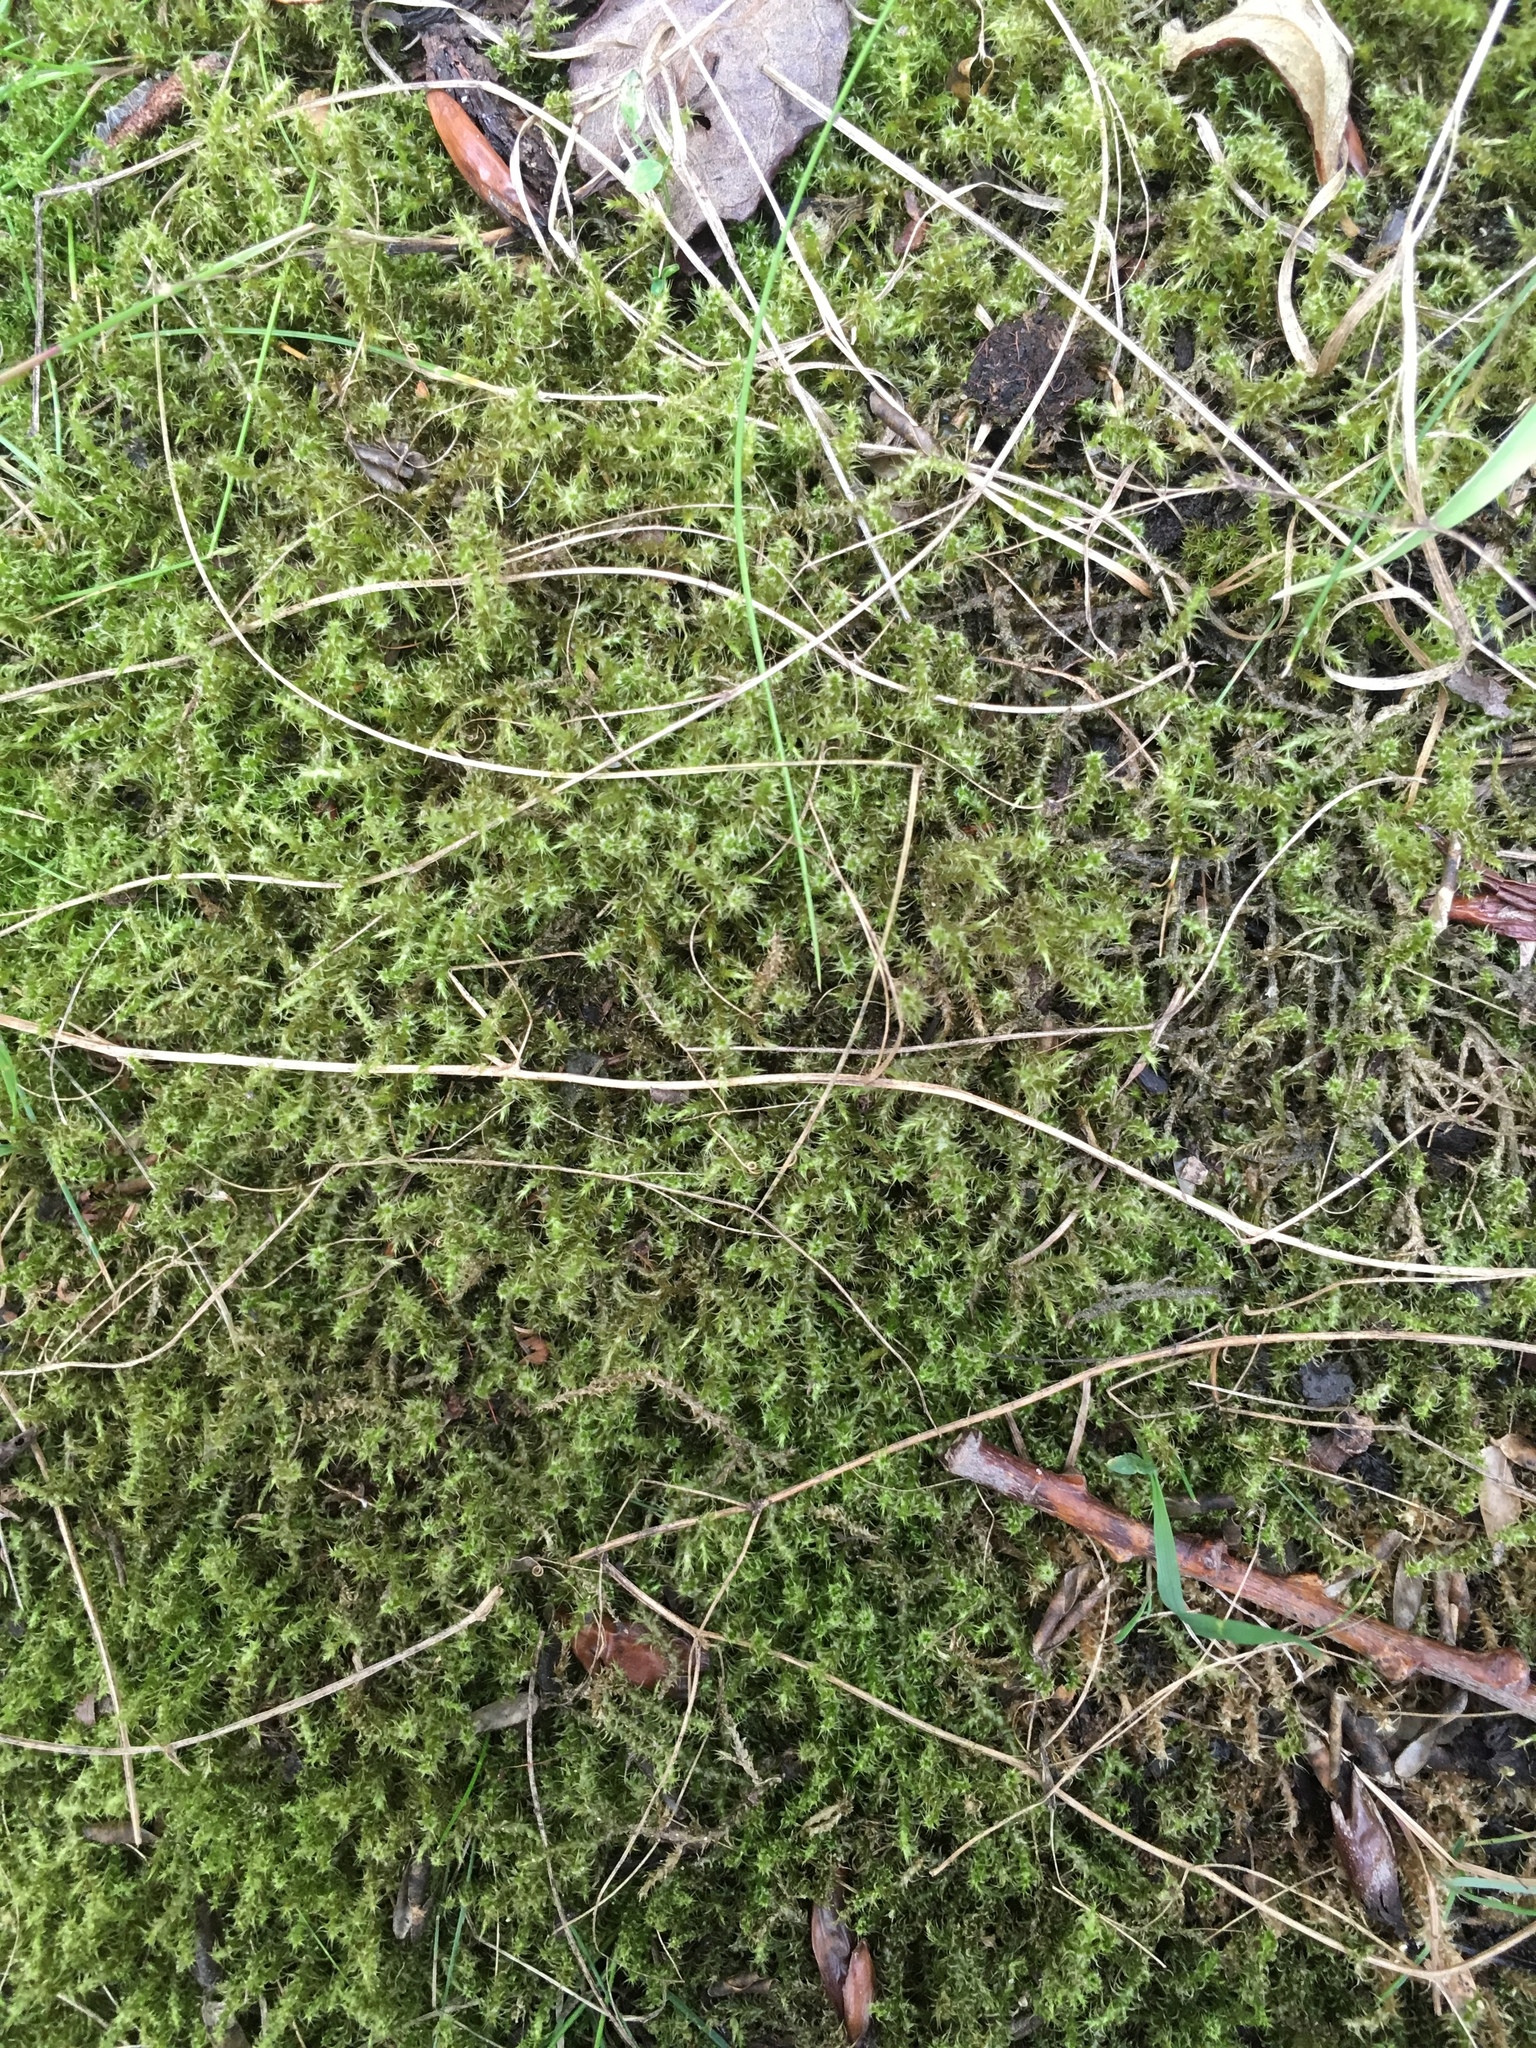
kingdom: Plantae
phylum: Bryophyta
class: Bryopsida
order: Hypnales
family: Hylocomiaceae
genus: Rhytidiadelphus
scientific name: Rhytidiadelphus squarrosus
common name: Springy turf-moss
